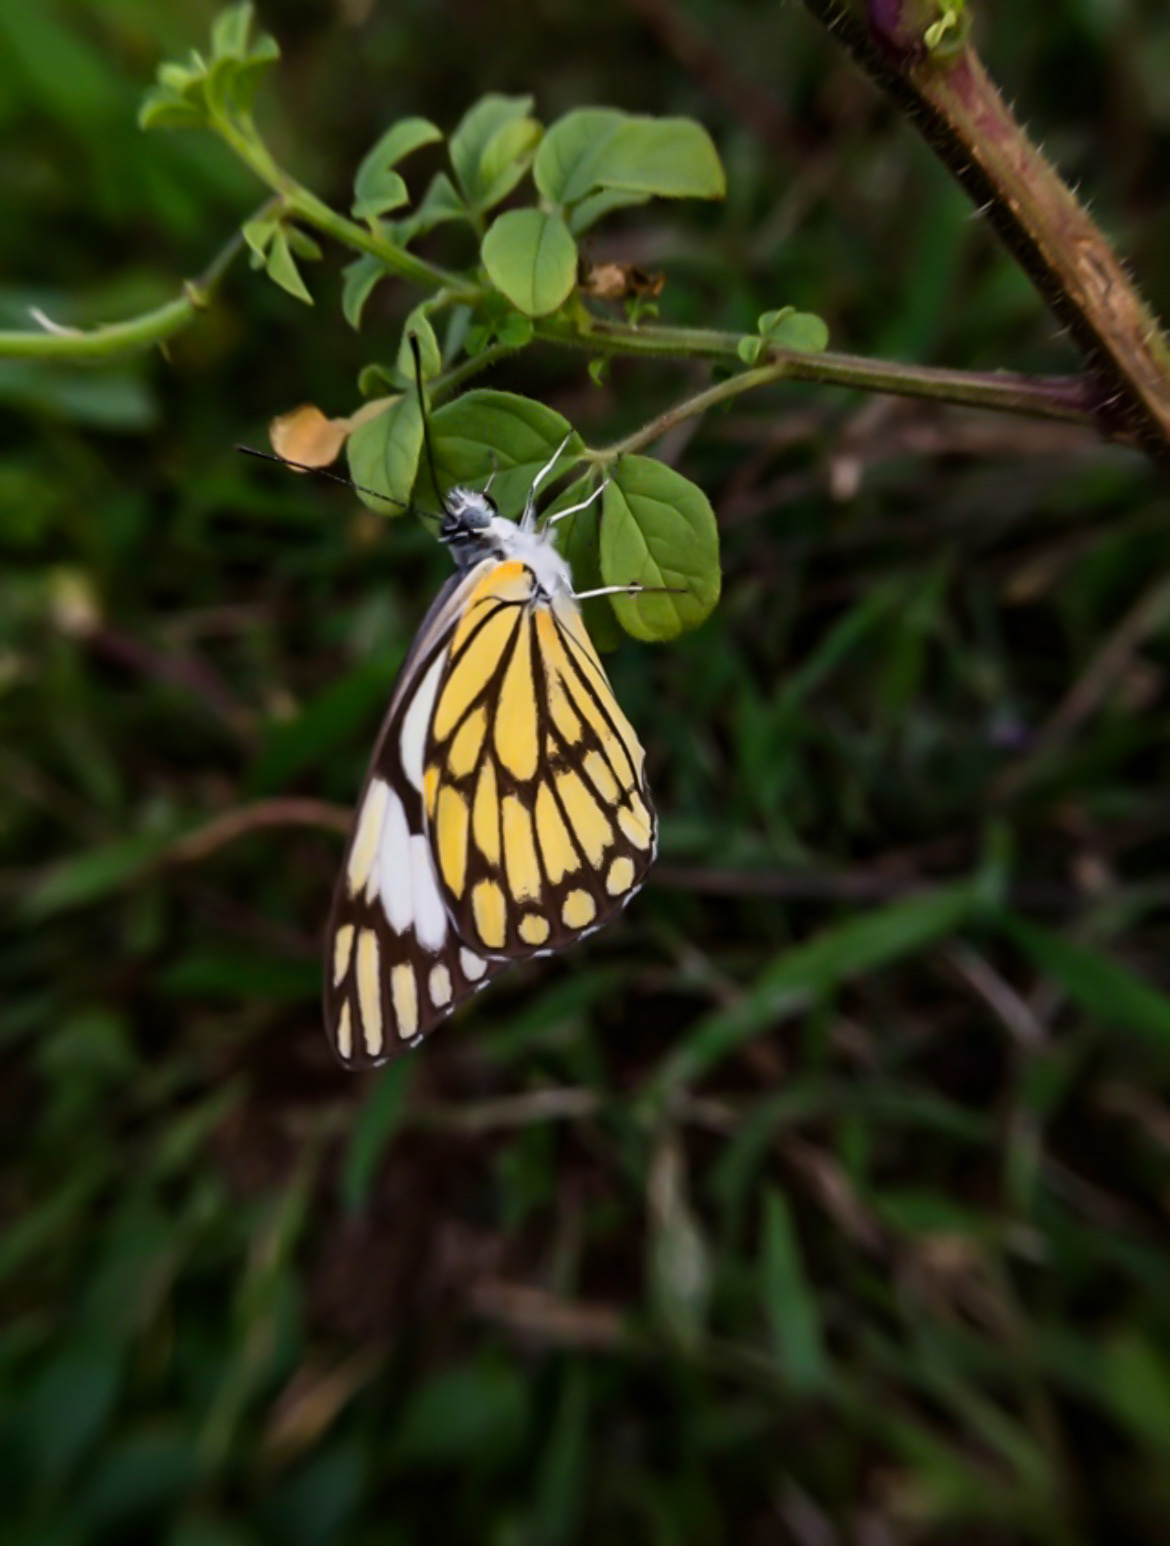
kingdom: Animalia
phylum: Arthropoda
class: Insecta
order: Lepidoptera
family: Pieridae
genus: Belenois
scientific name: Belenois aurota
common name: Brown-veined white
